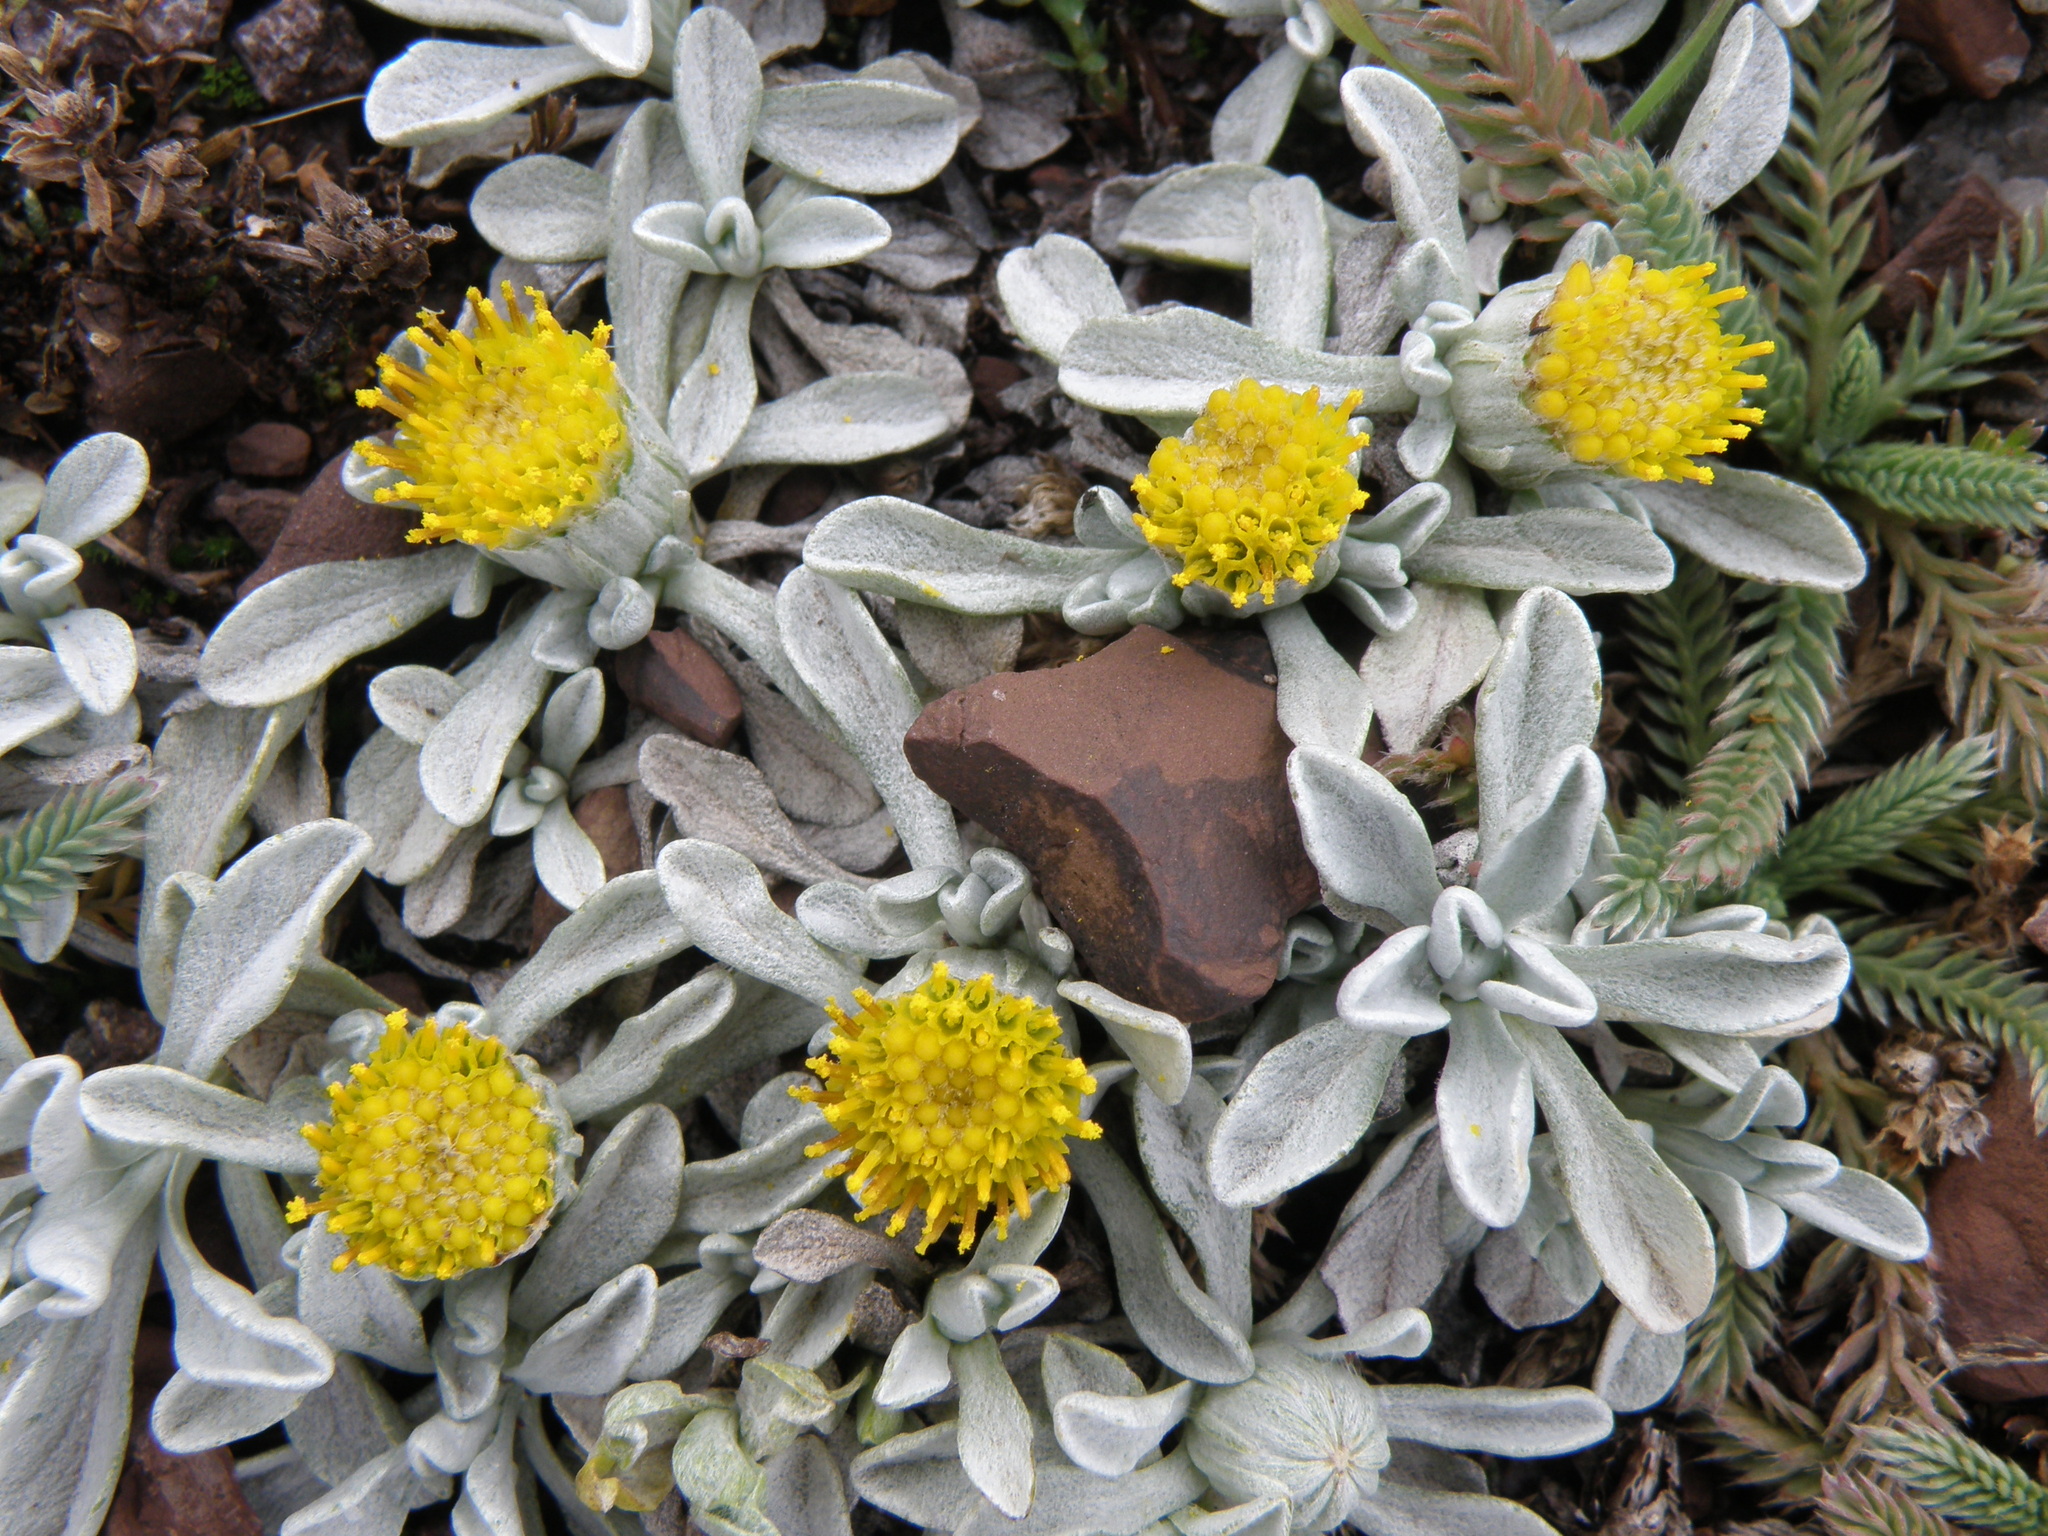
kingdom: Plantae
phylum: Tracheophyta
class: Magnoliopsida
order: Asterales
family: Asteraceae
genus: Senecio
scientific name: Senecio evacoides
